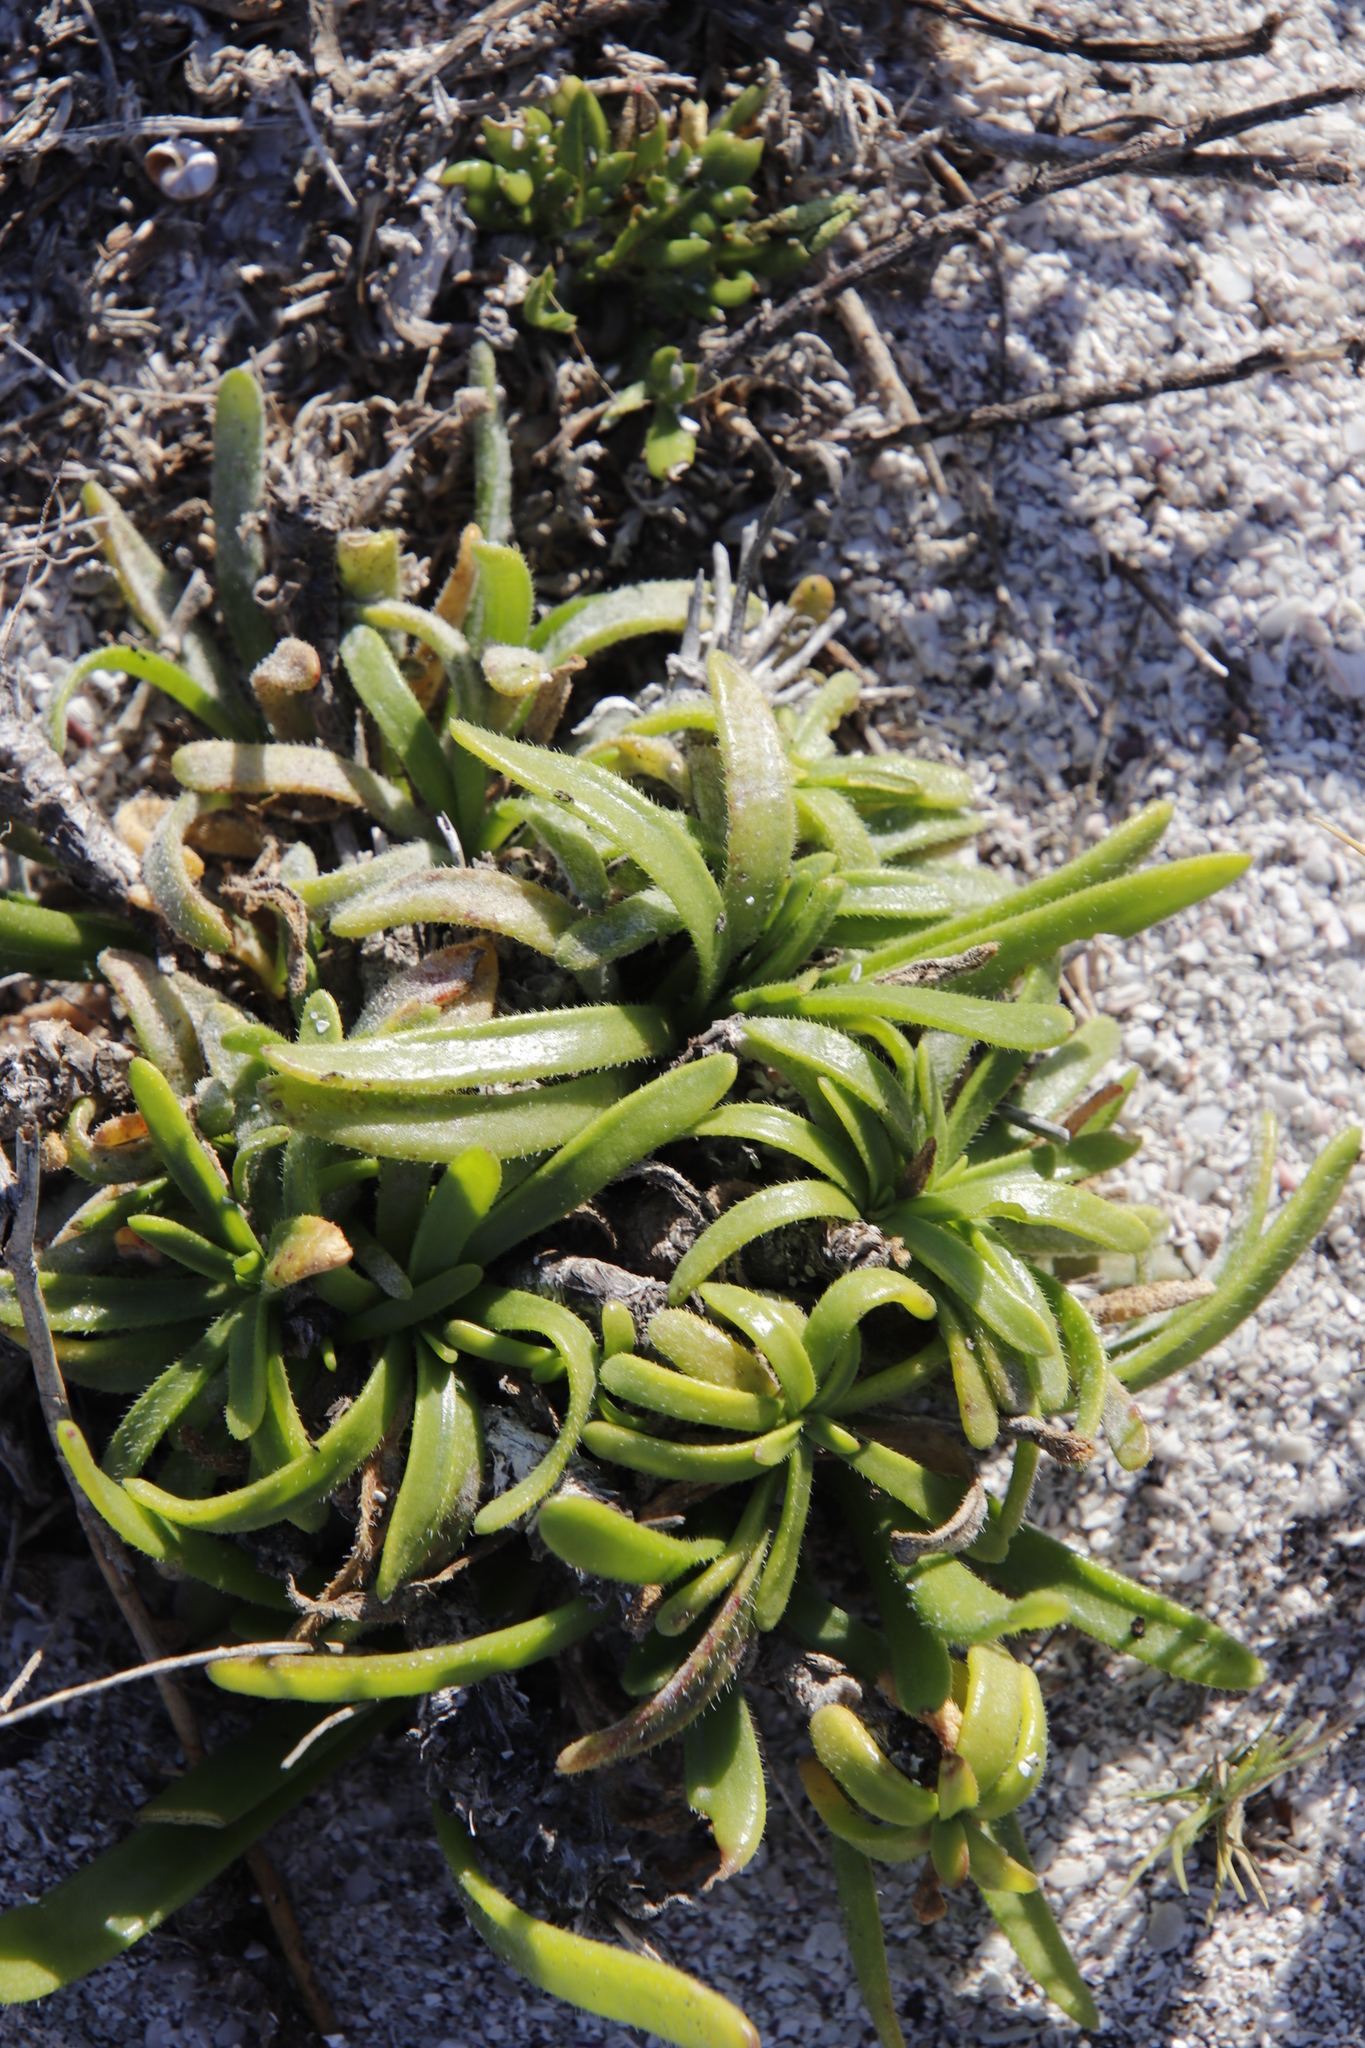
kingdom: Plantae
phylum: Tracheophyta
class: Magnoliopsida
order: Lamiales
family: Plantaginaceae
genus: Plantago
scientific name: Plantago carnosa
